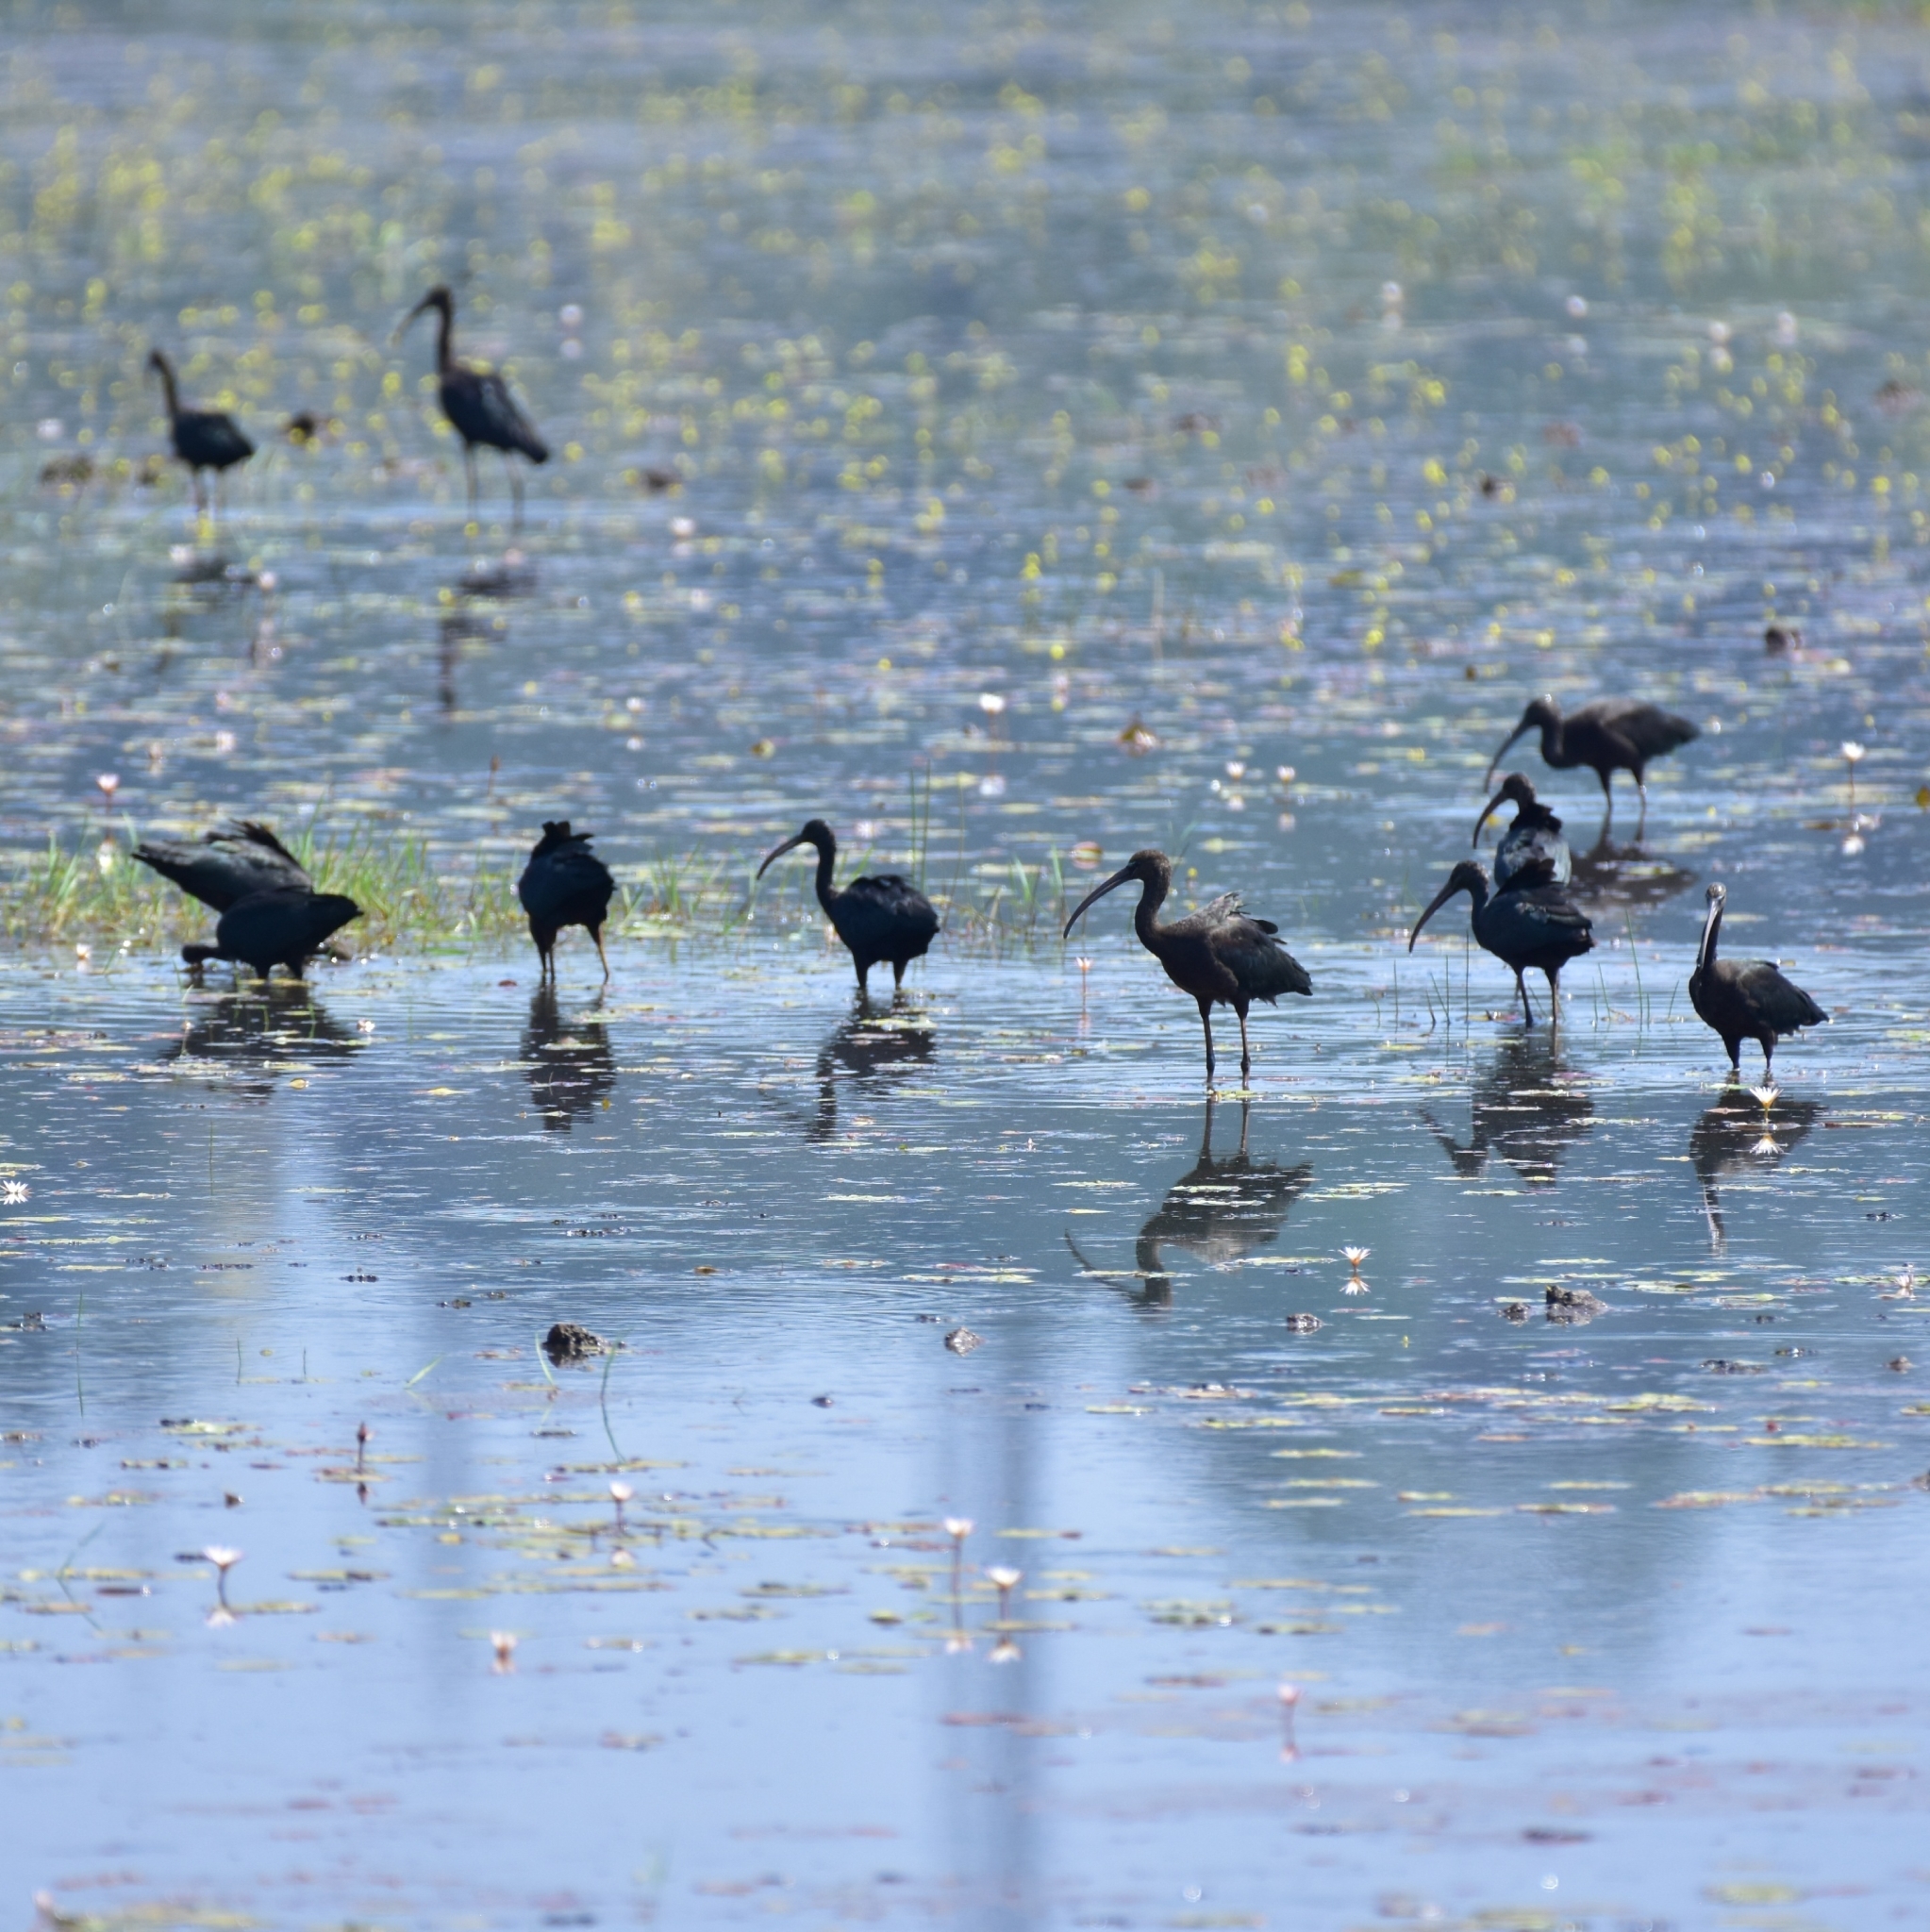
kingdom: Animalia
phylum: Chordata
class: Aves
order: Pelecaniformes
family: Threskiornithidae
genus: Plegadis
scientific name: Plegadis falcinellus
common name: Glossy ibis
